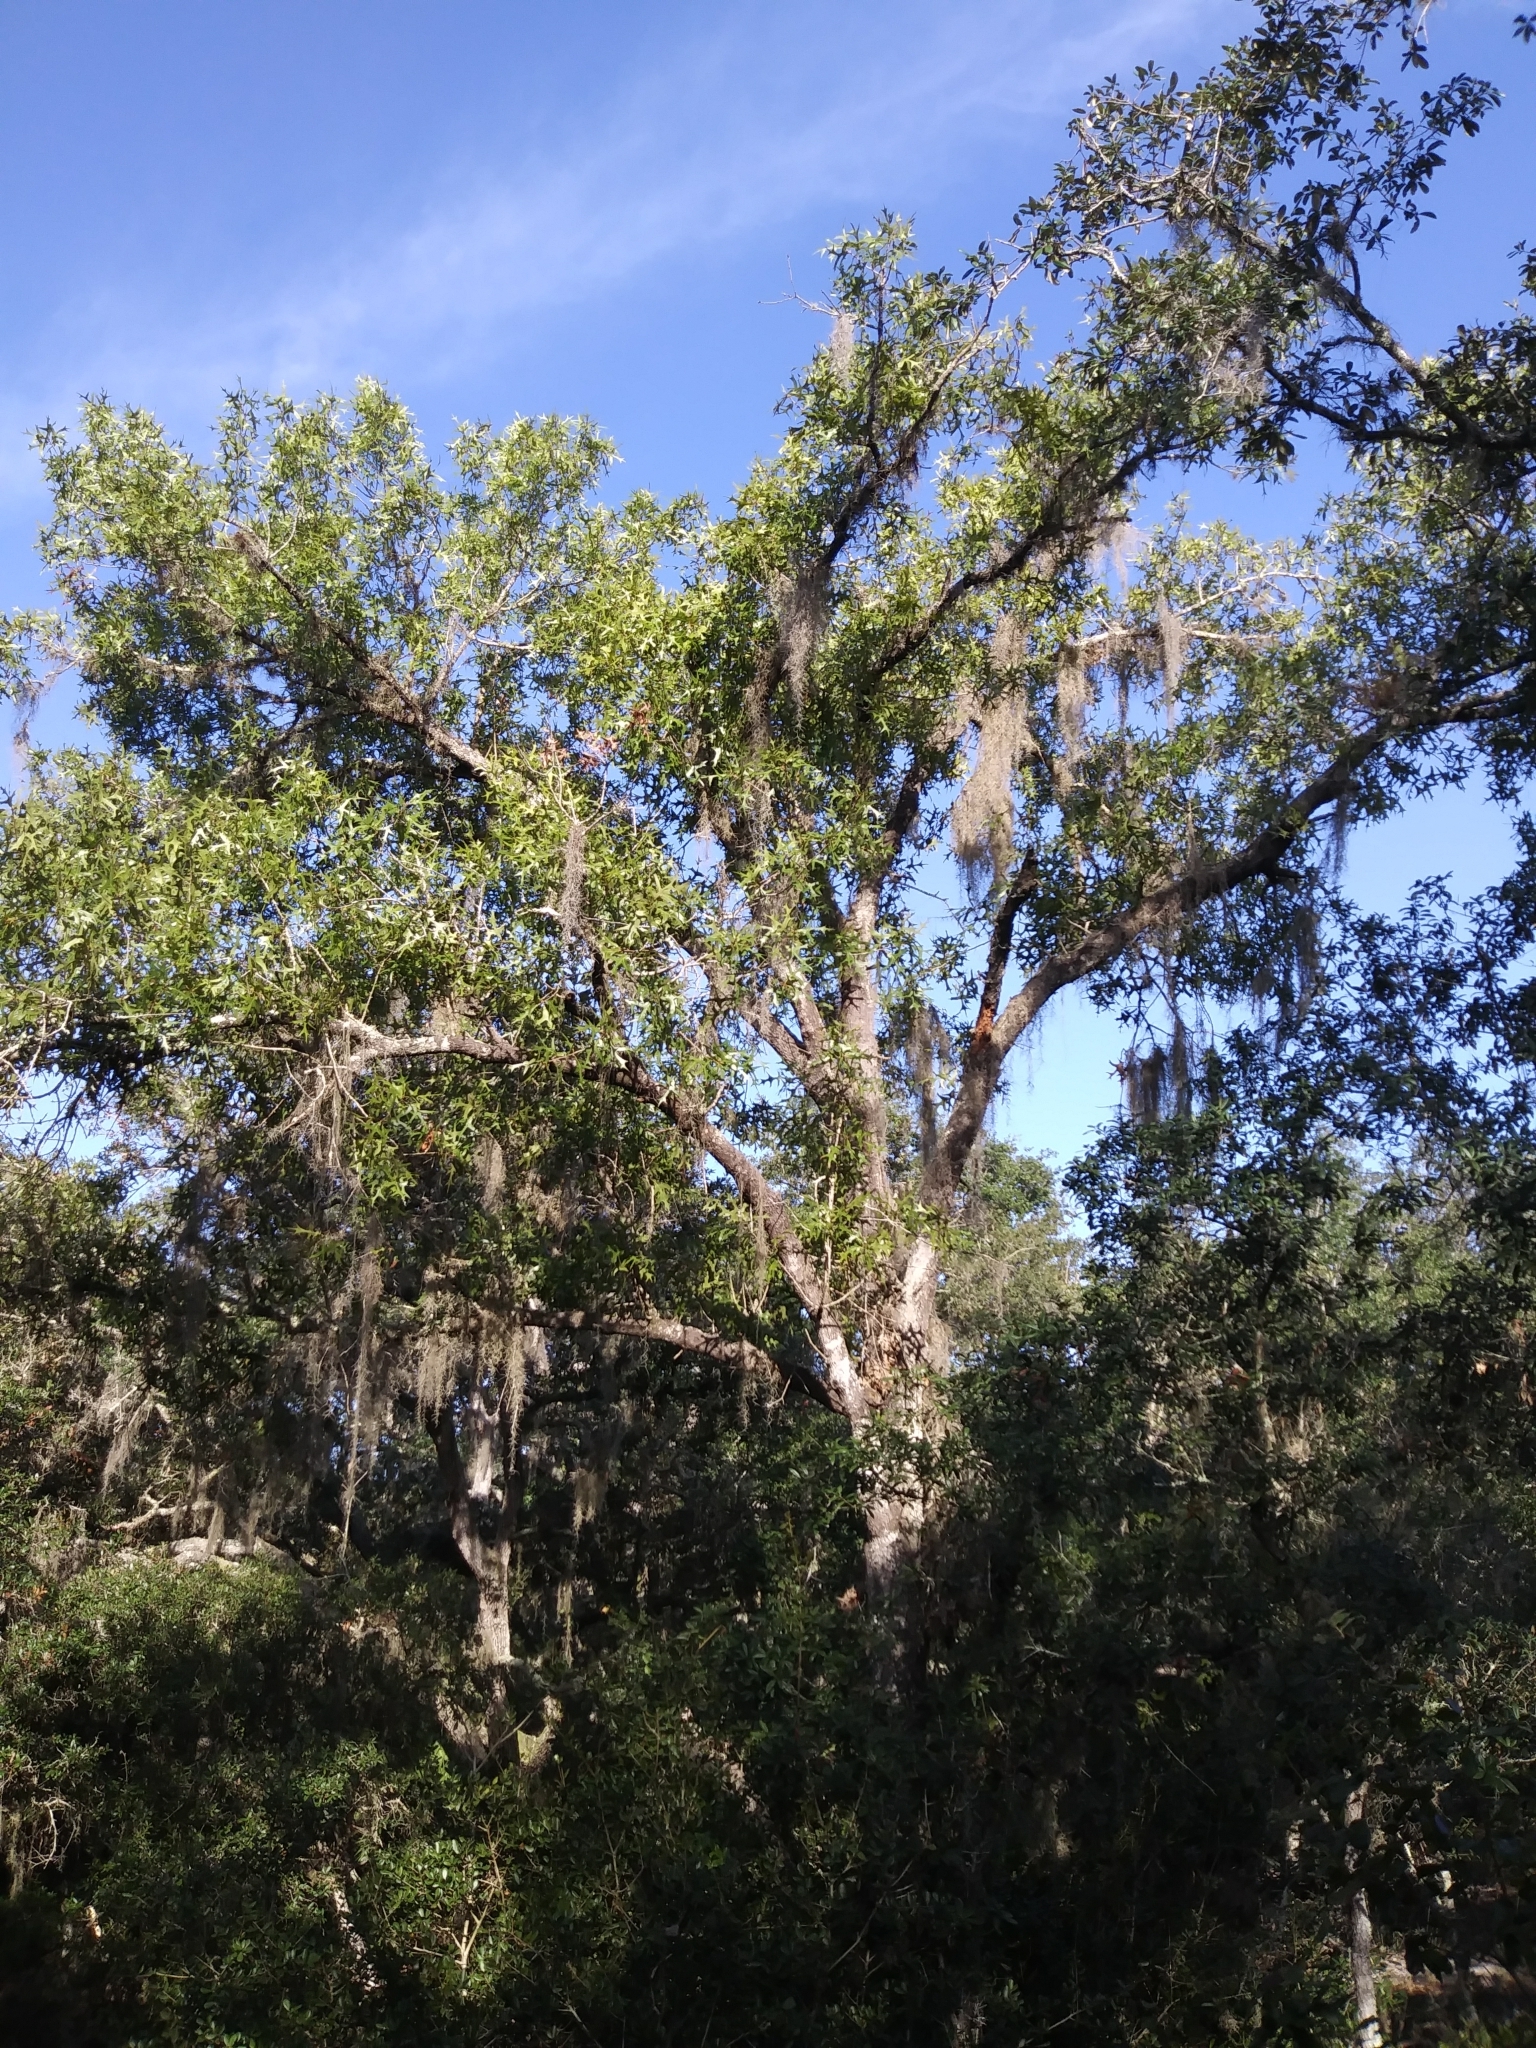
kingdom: Plantae
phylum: Tracheophyta
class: Magnoliopsida
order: Fagales
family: Fagaceae
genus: Quercus
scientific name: Quercus laevis
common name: Turkey oak
